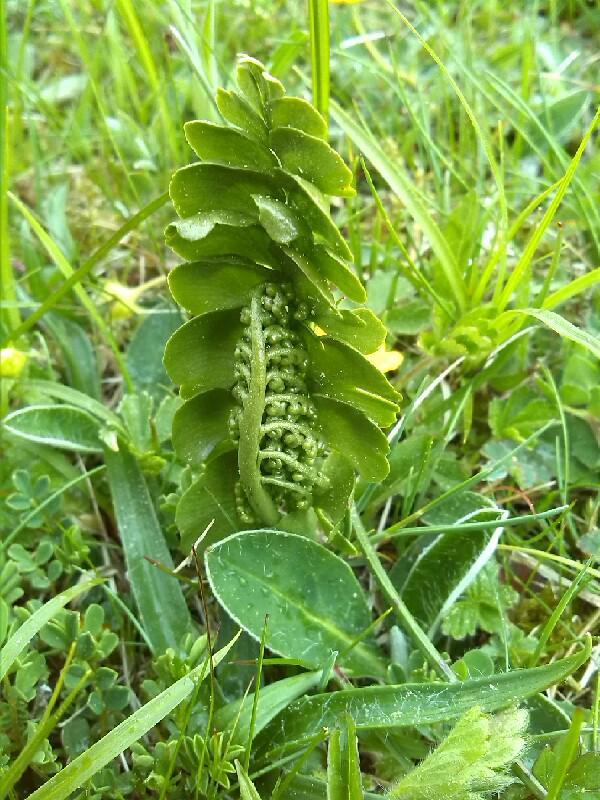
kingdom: Plantae
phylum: Tracheophyta
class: Polypodiopsida
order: Ophioglossales
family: Ophioglossaceae
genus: Botrychium
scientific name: Botrychium lunaria
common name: Moonwort
